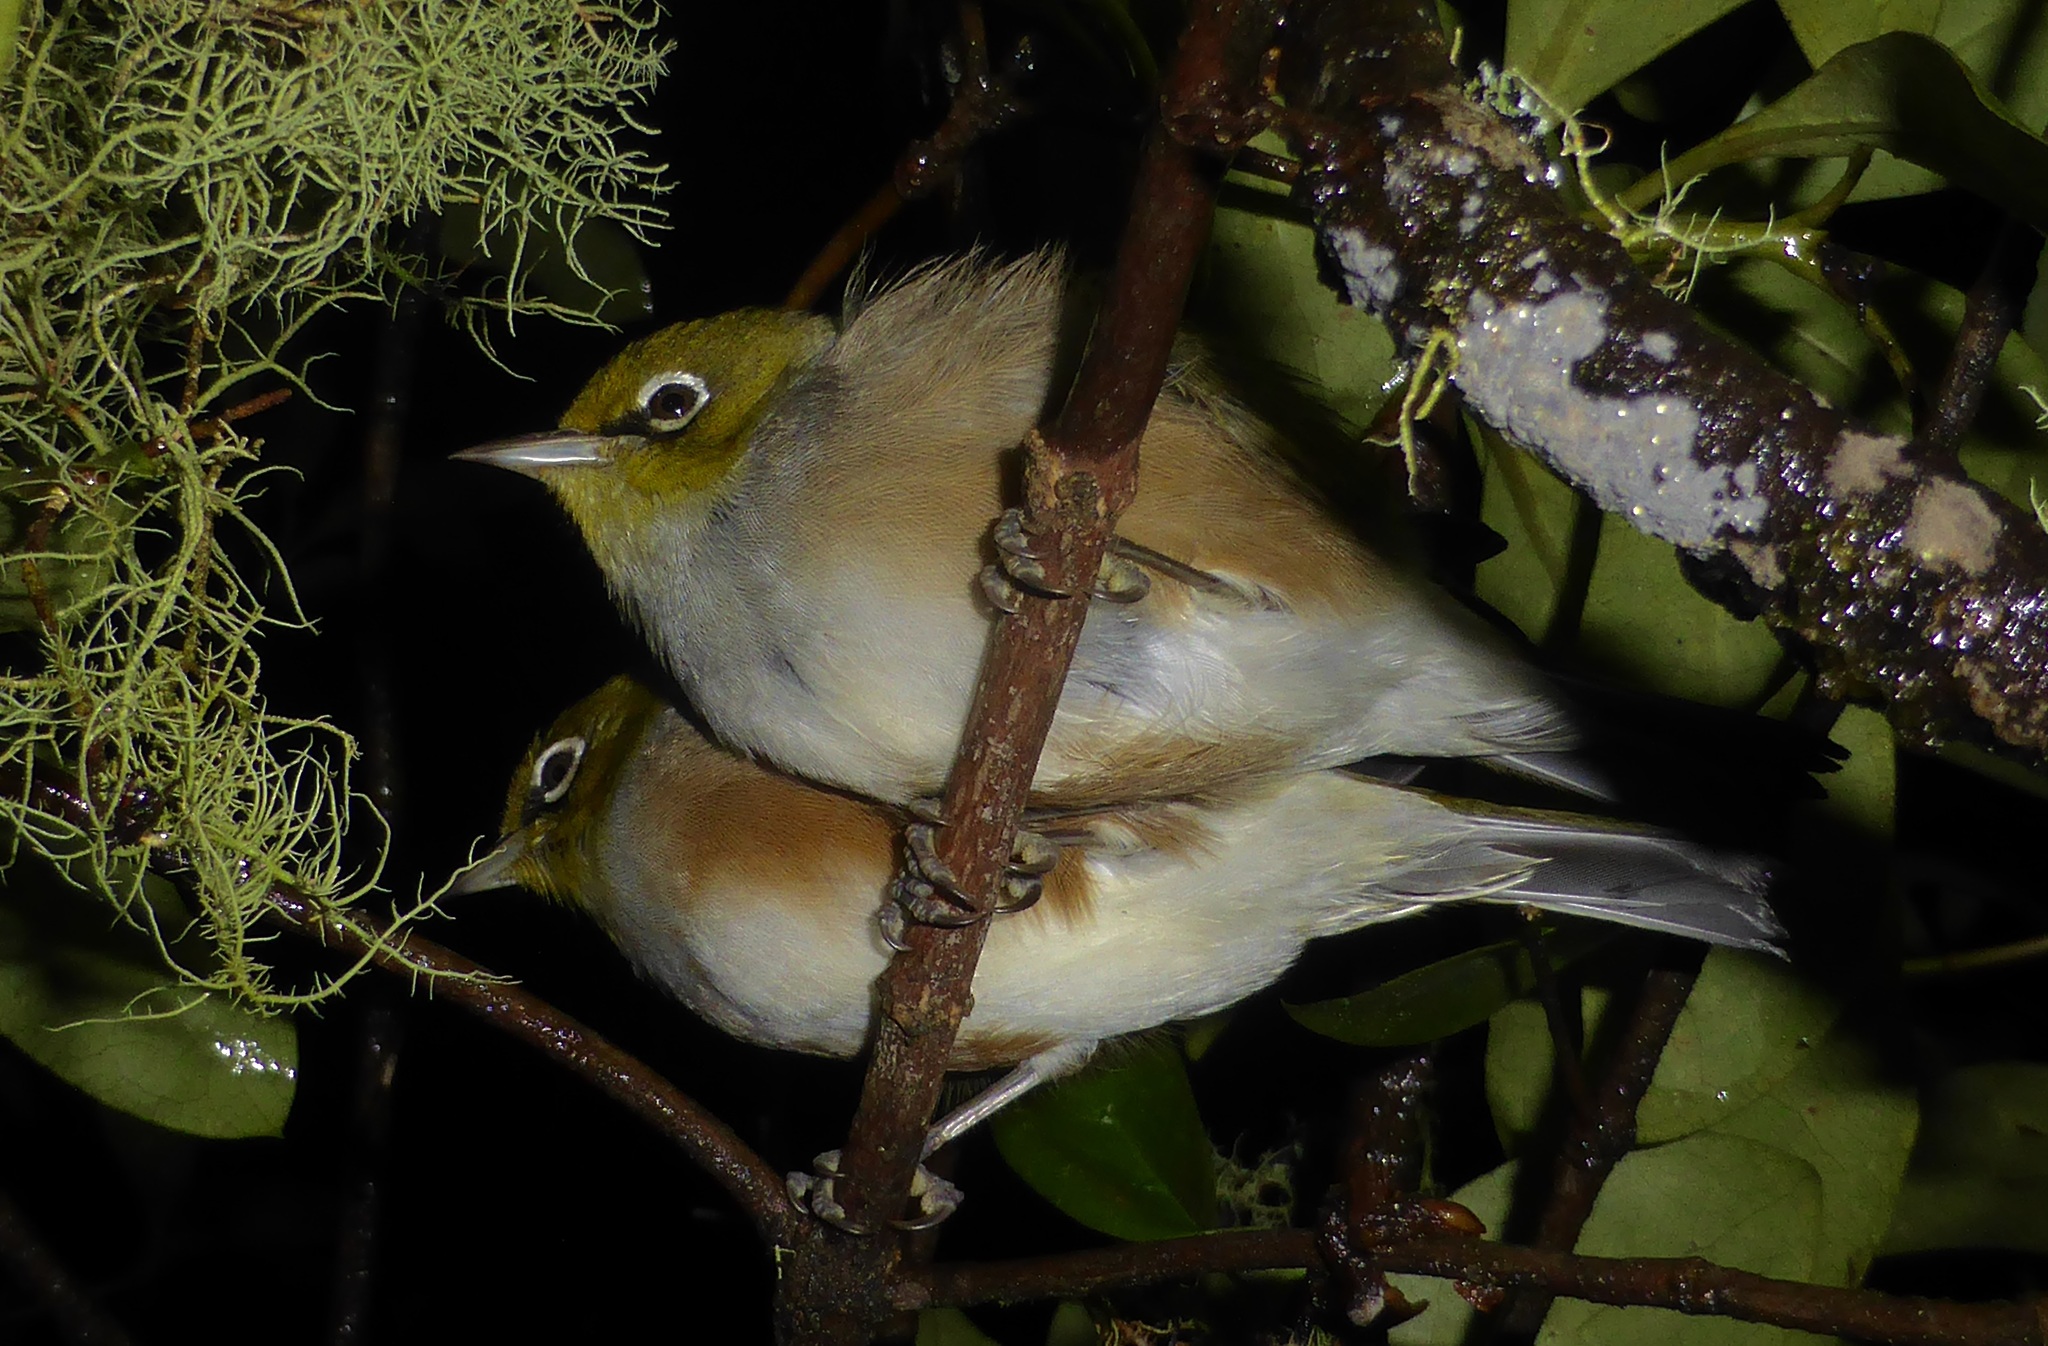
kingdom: Animalia
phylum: Chordata
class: Aves
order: Passeriformes
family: Zosteropidae
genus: Zosterops
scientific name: Zosterops lateralis
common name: Silvereye
